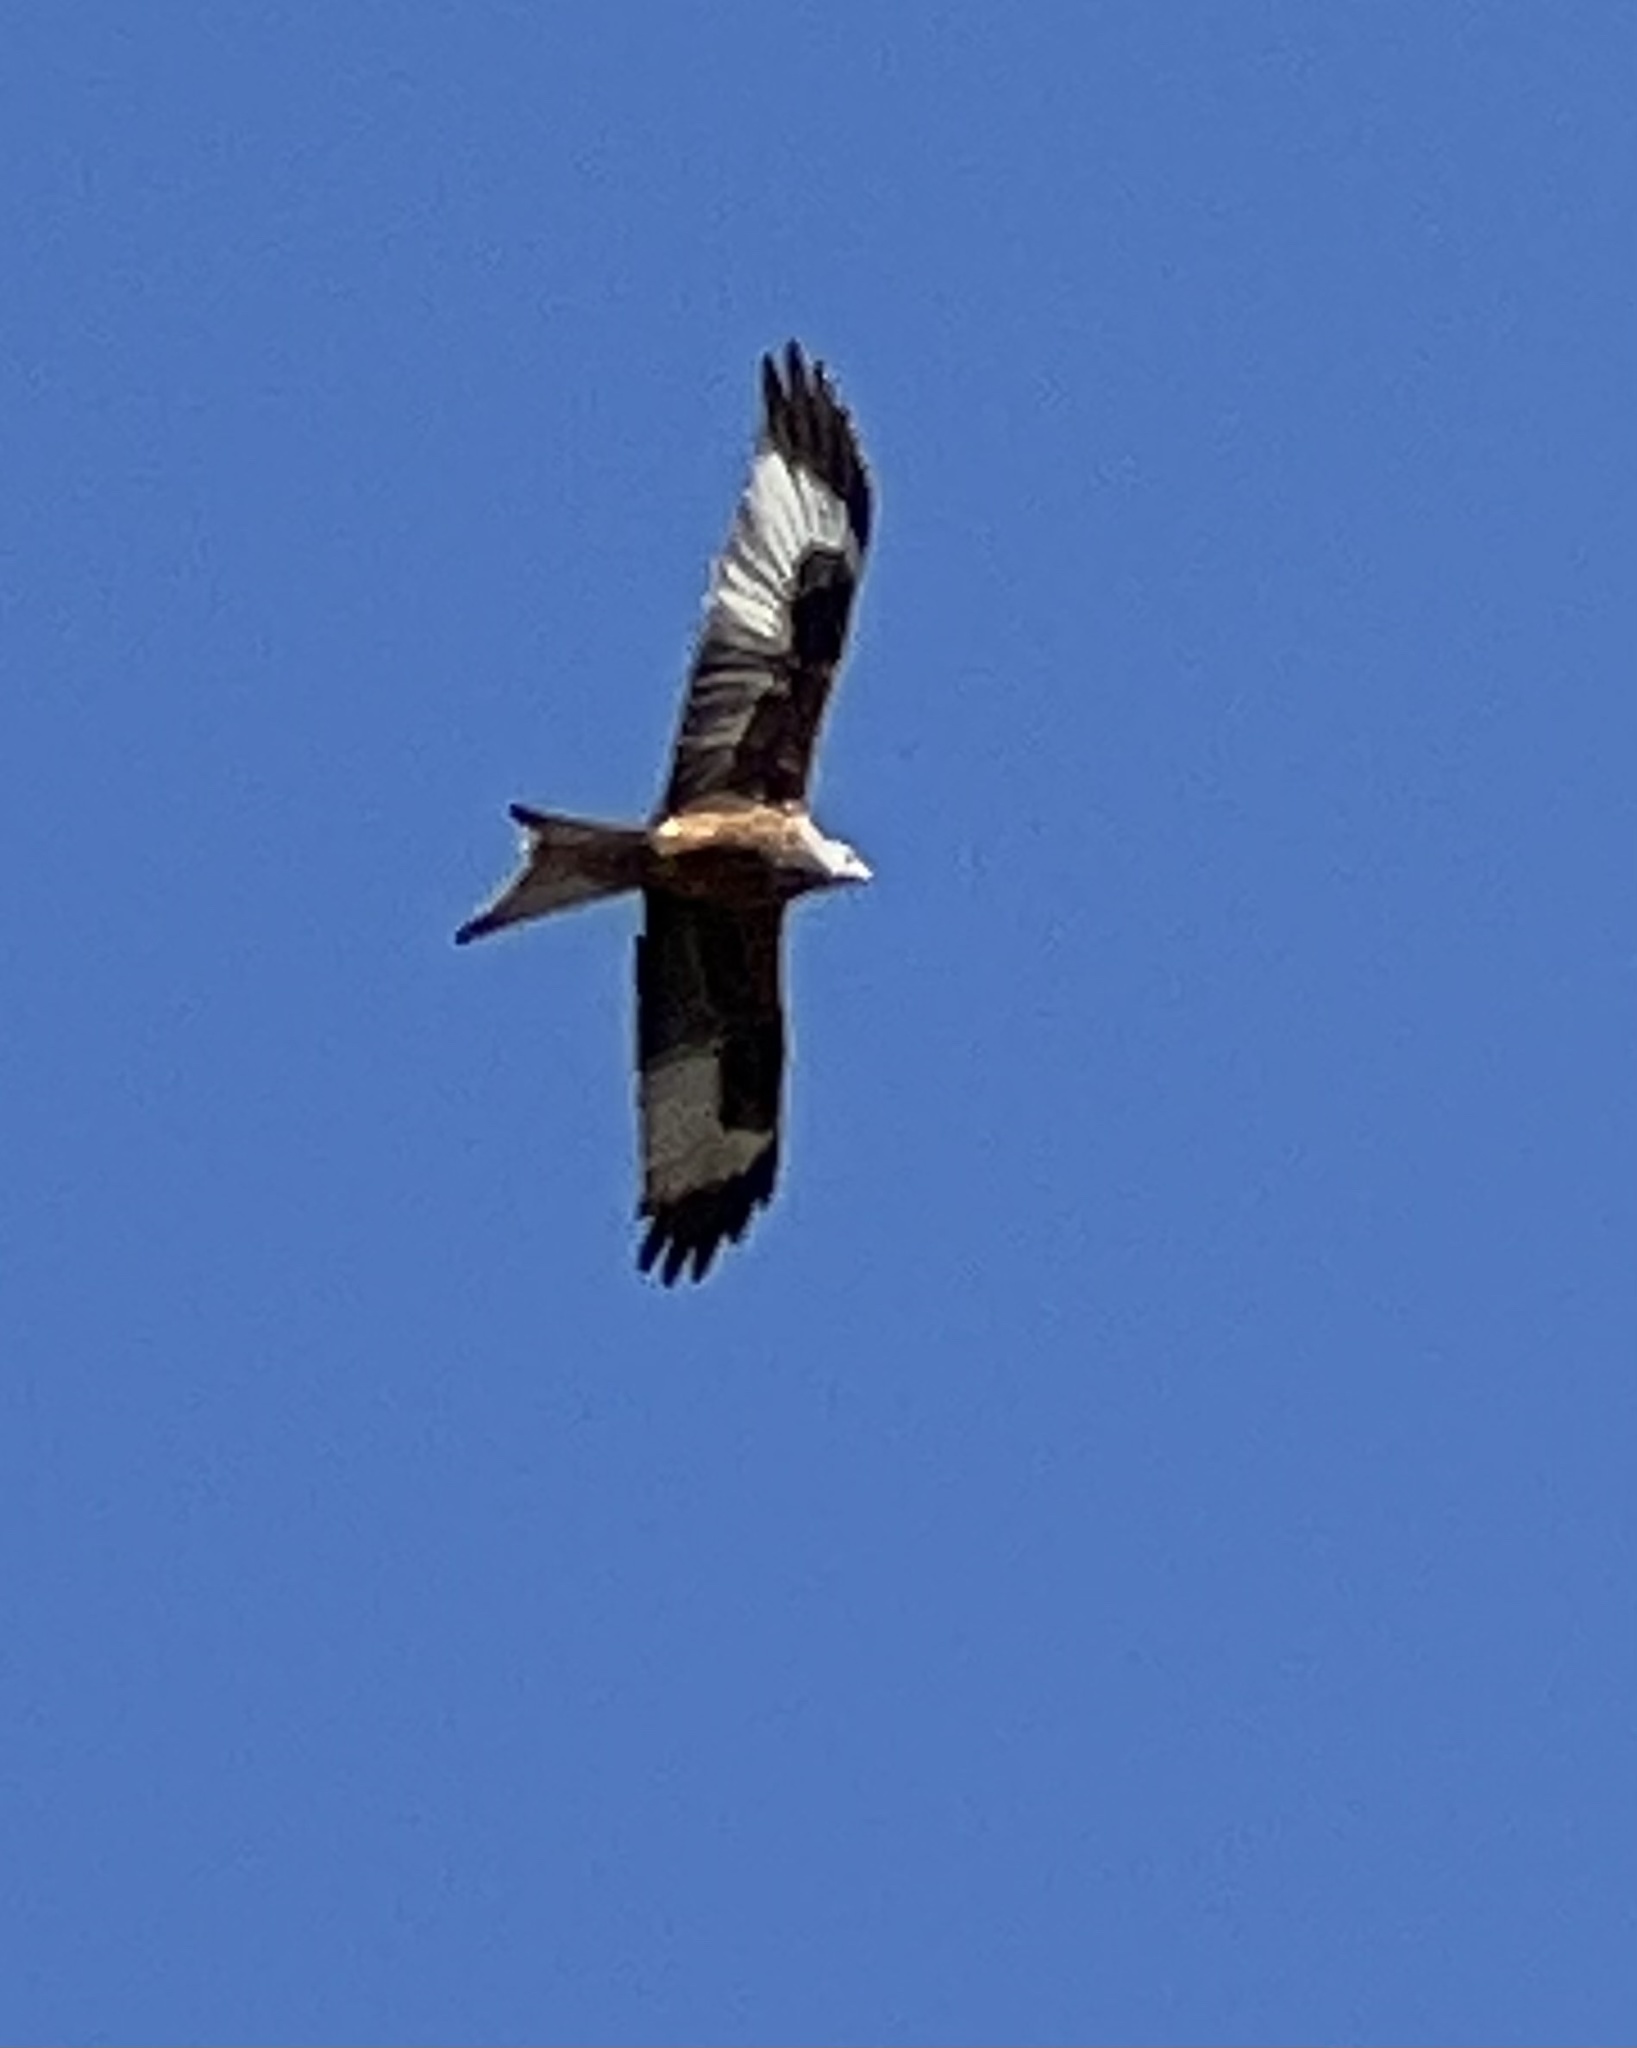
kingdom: Animalia
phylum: Chordata
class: Aves
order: Accipitriformes
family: Accipitridae
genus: Milvus
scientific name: Milvus milvus
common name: Red kite
